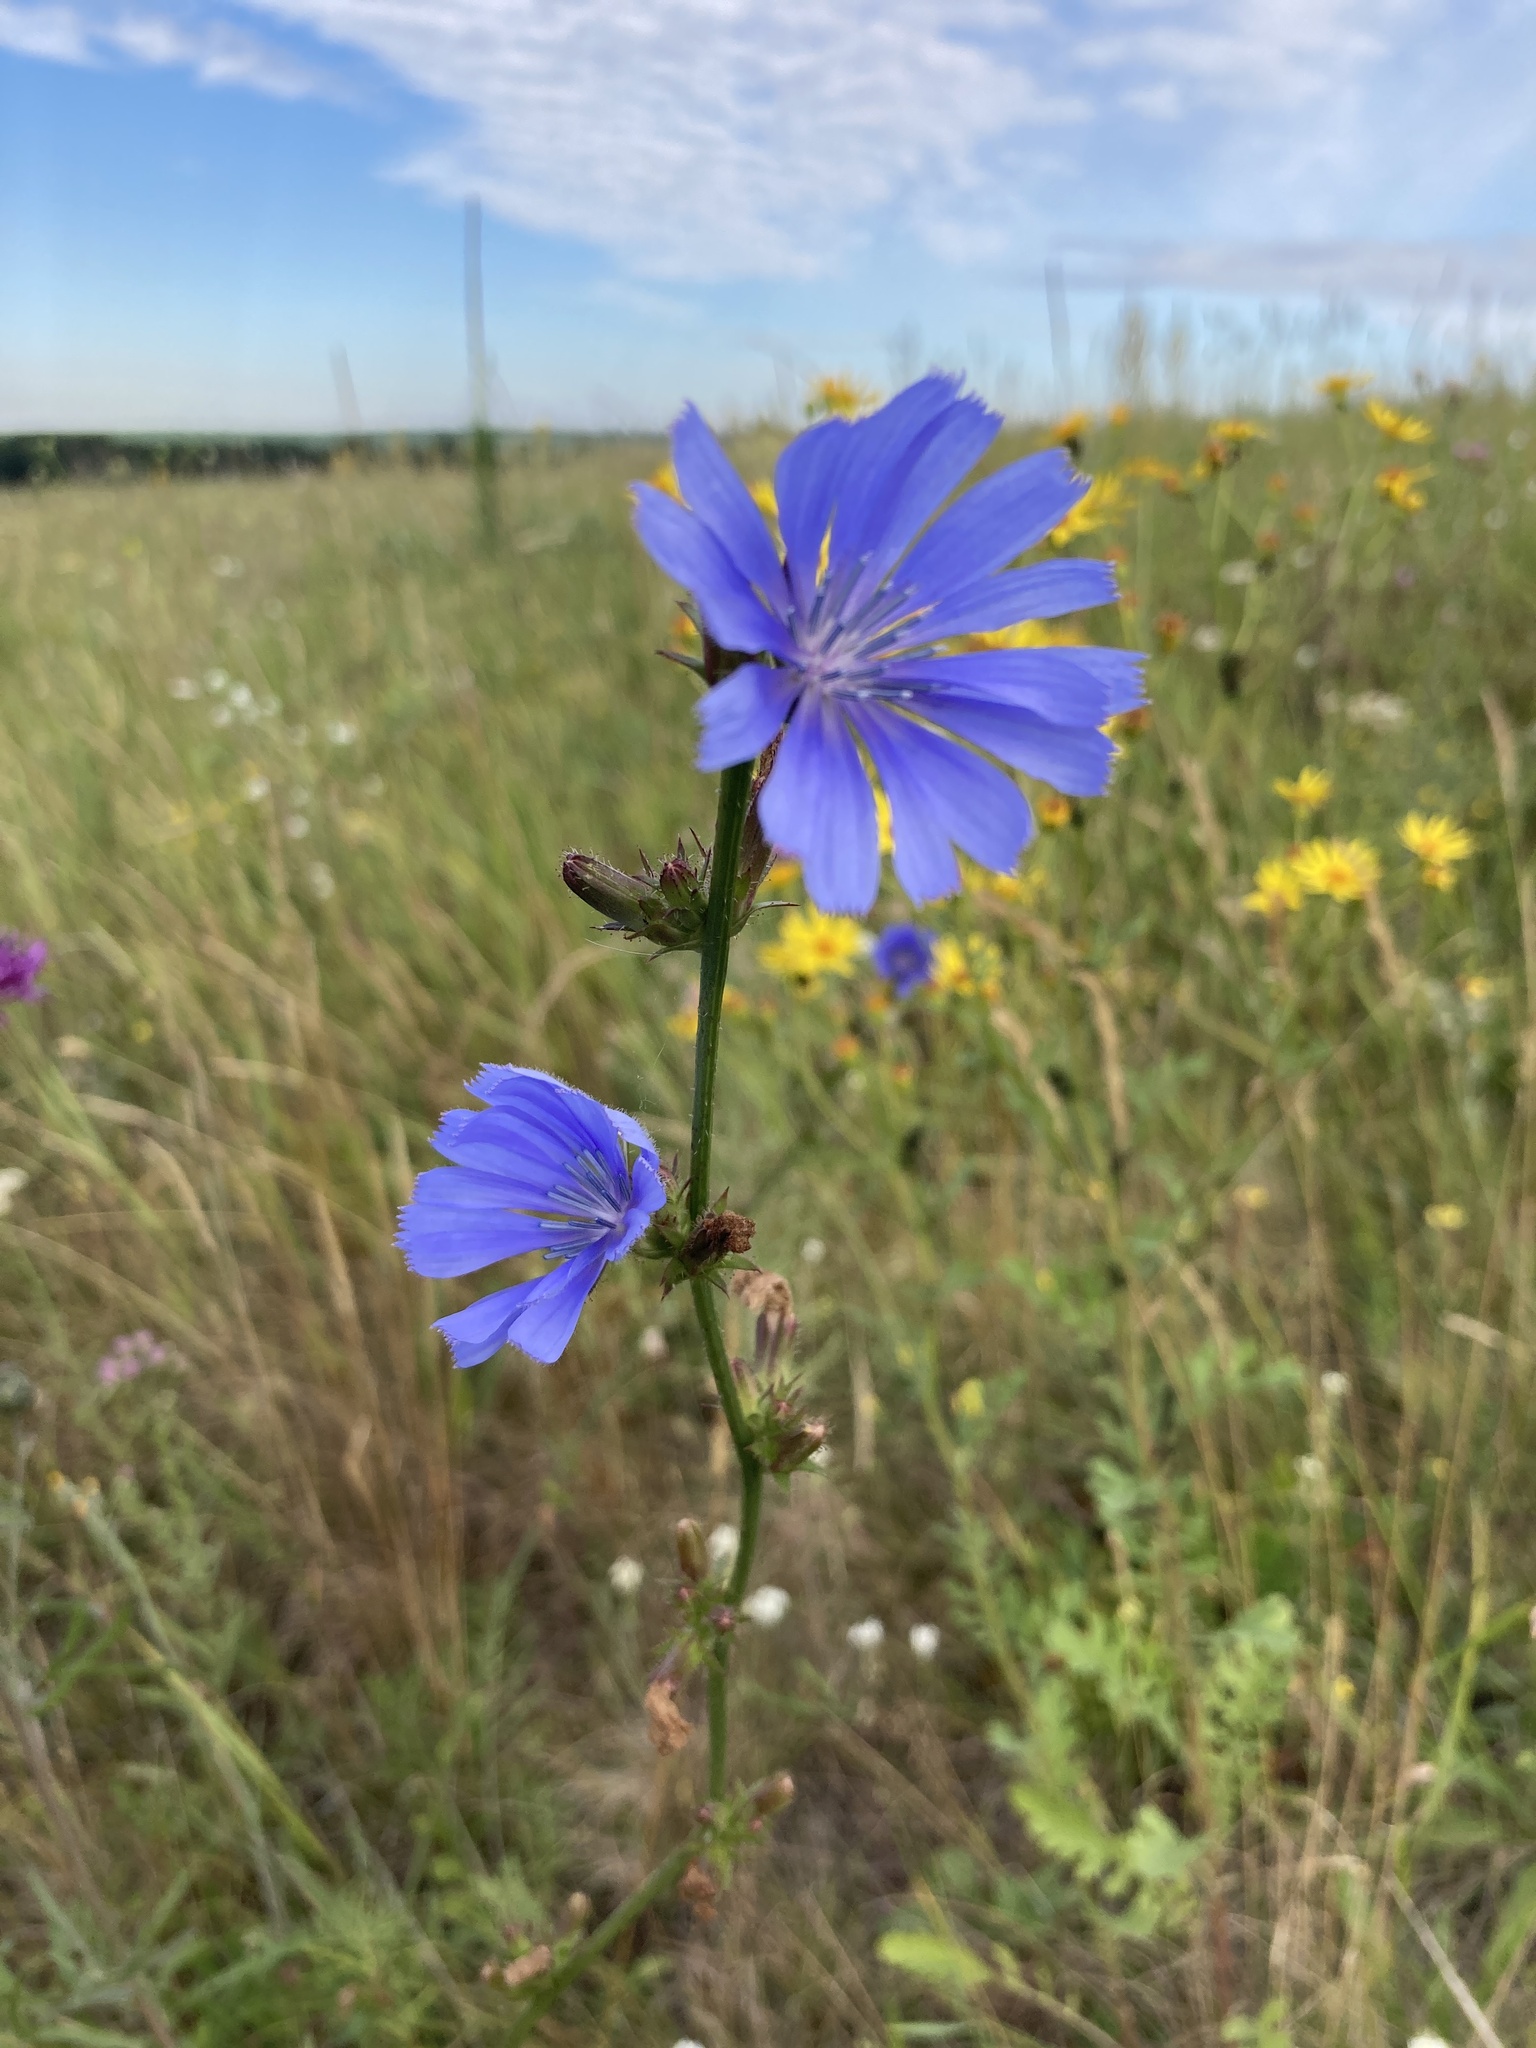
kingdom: Plantae
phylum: Tracheophyta
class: Magnoliopsida
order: Asterales
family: Asteraceae
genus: Cichorium
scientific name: Cichorium intybus
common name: Chicory
